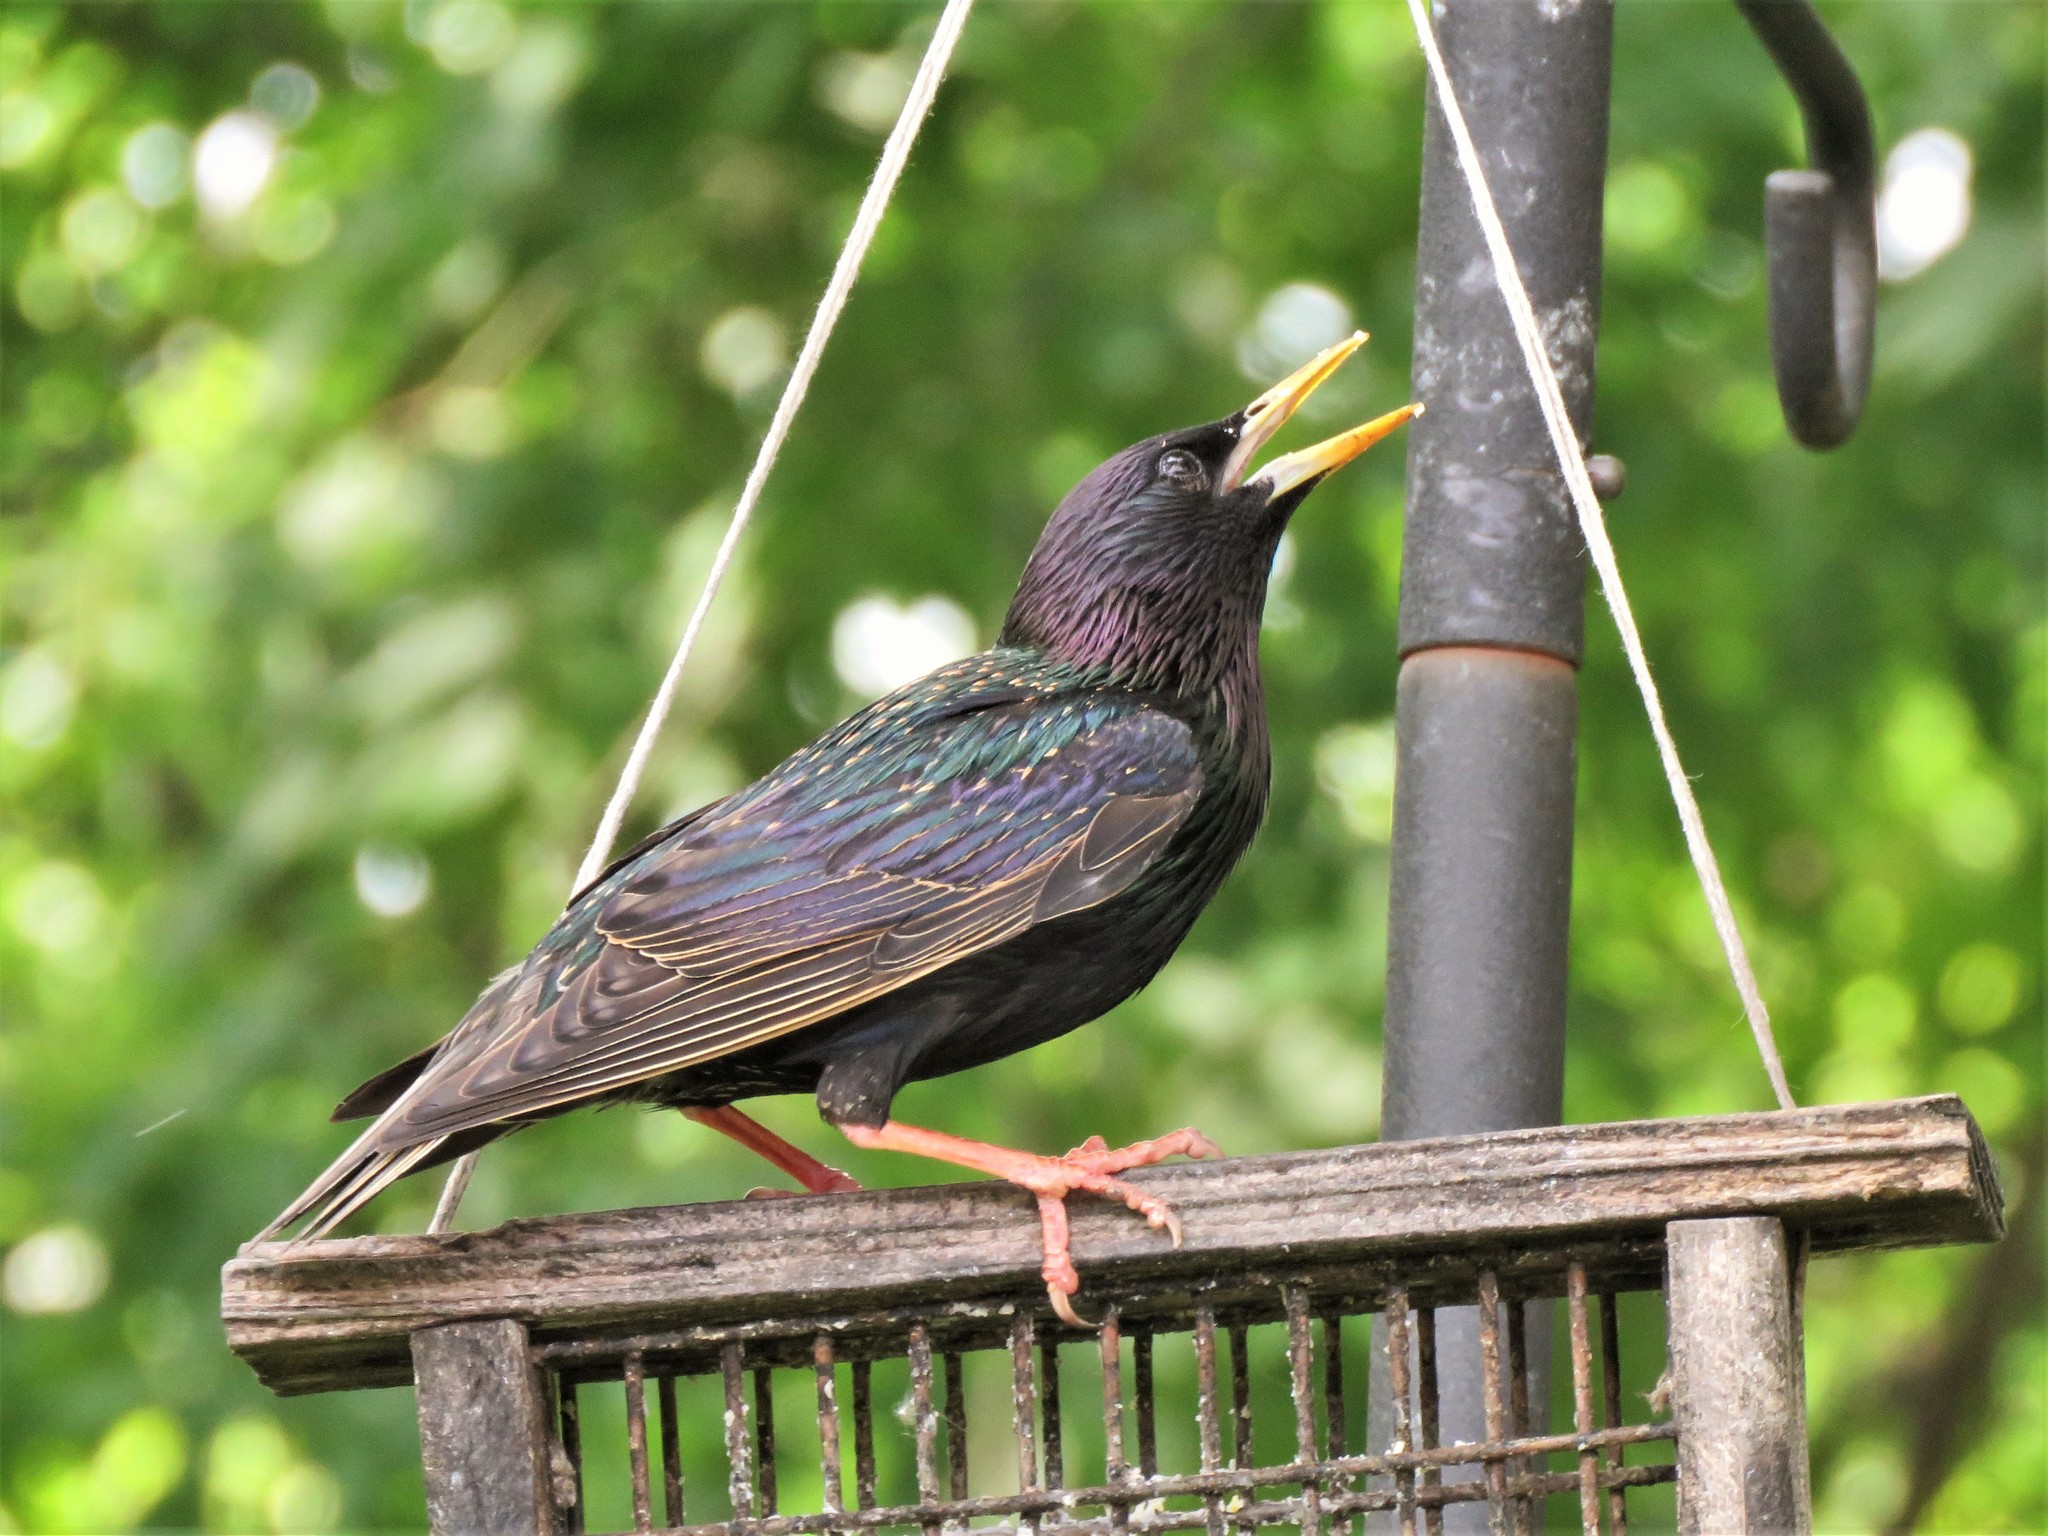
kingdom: Animalia
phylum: Chordata
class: Aves
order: Passeriformes
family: Sturnidae
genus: Sturnus
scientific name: Sturnus vulgaris
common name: Common starling
